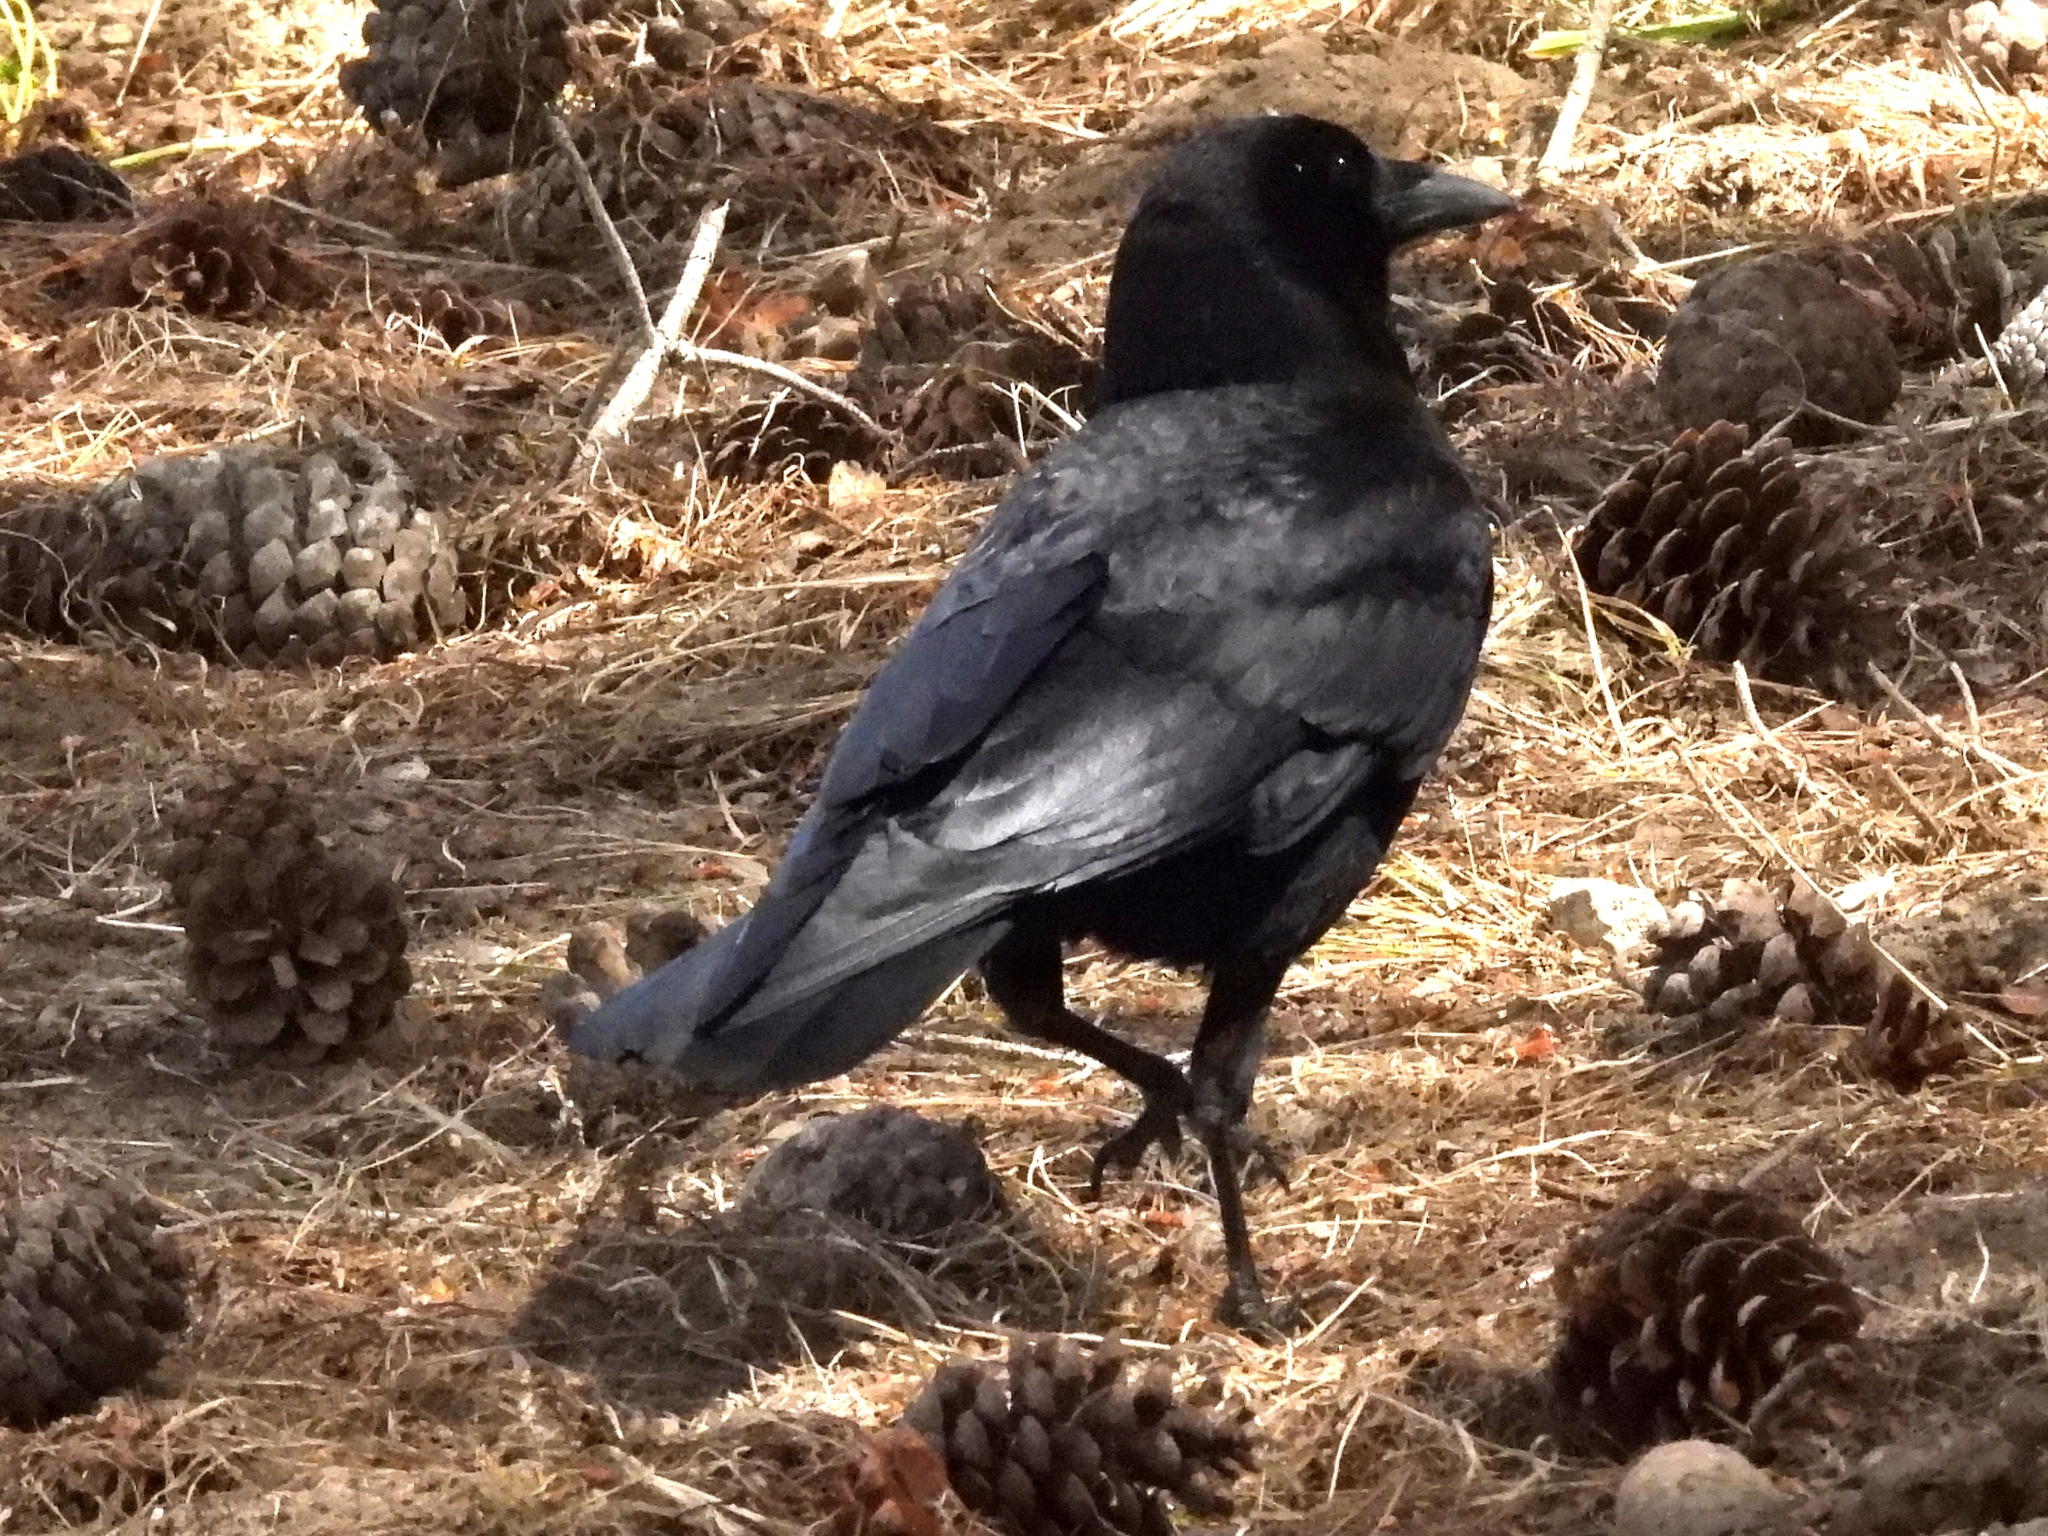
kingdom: Animalia
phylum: Chordata
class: Aves
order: Passeriformes
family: Corvidae
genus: Corvus
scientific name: Corvus brachyrhynchos
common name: American crow
